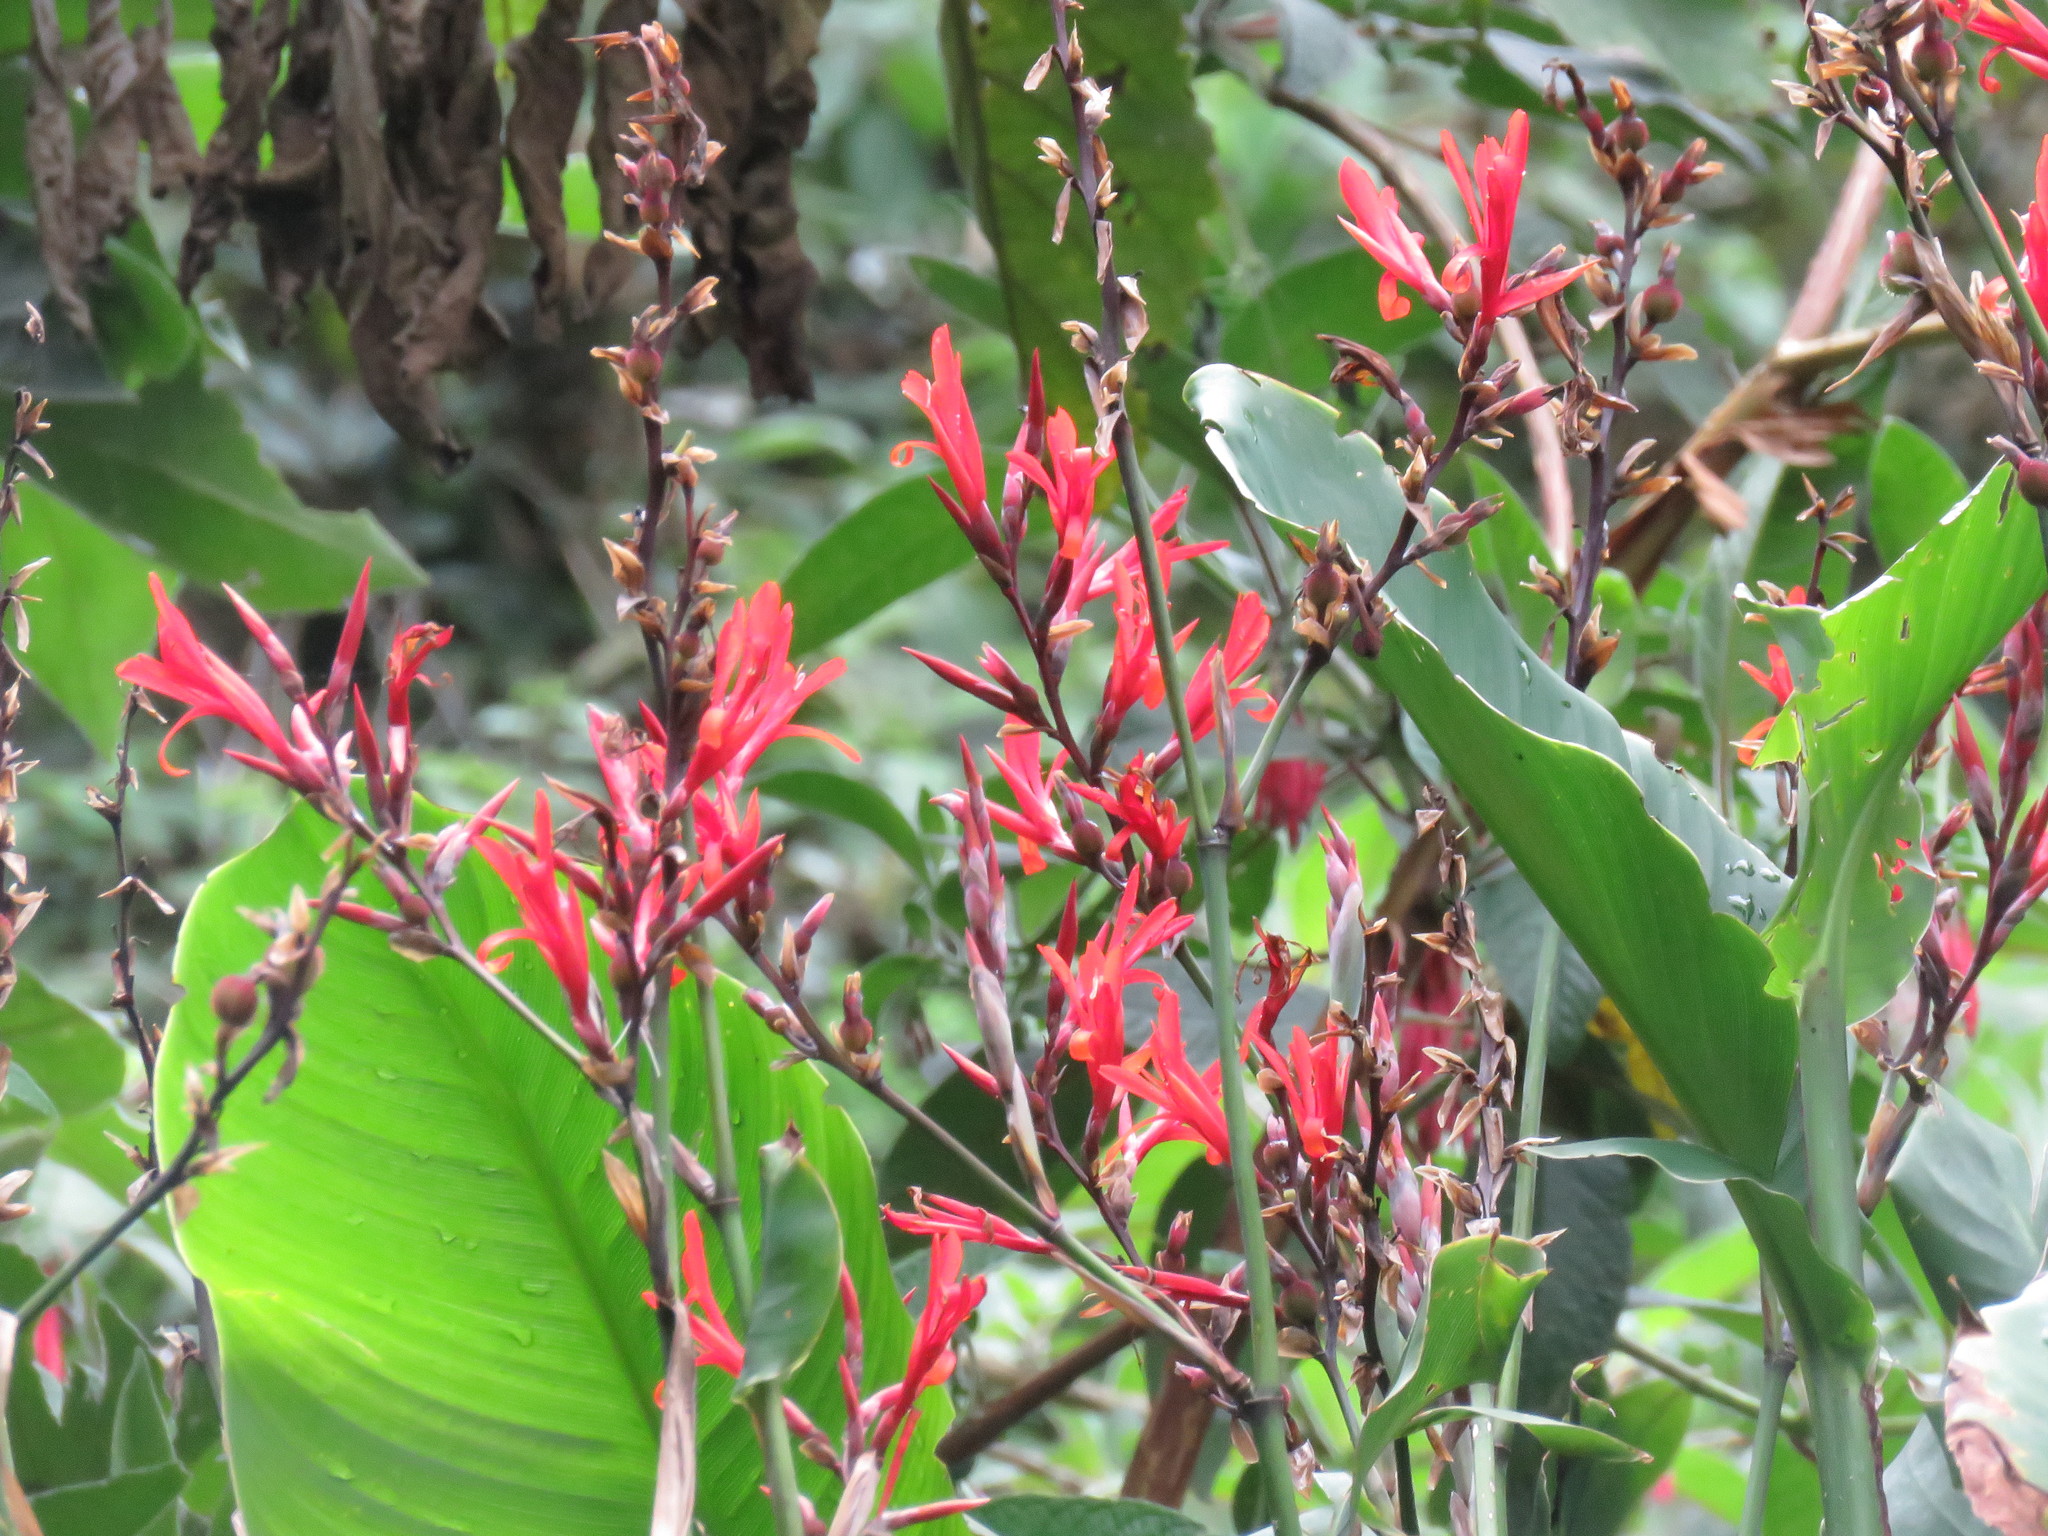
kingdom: Plantae
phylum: Tracheophyta
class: Liliopsida
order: Zingiberales
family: Cannaceae
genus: Canna
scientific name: Canna indica
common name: Indian shot
